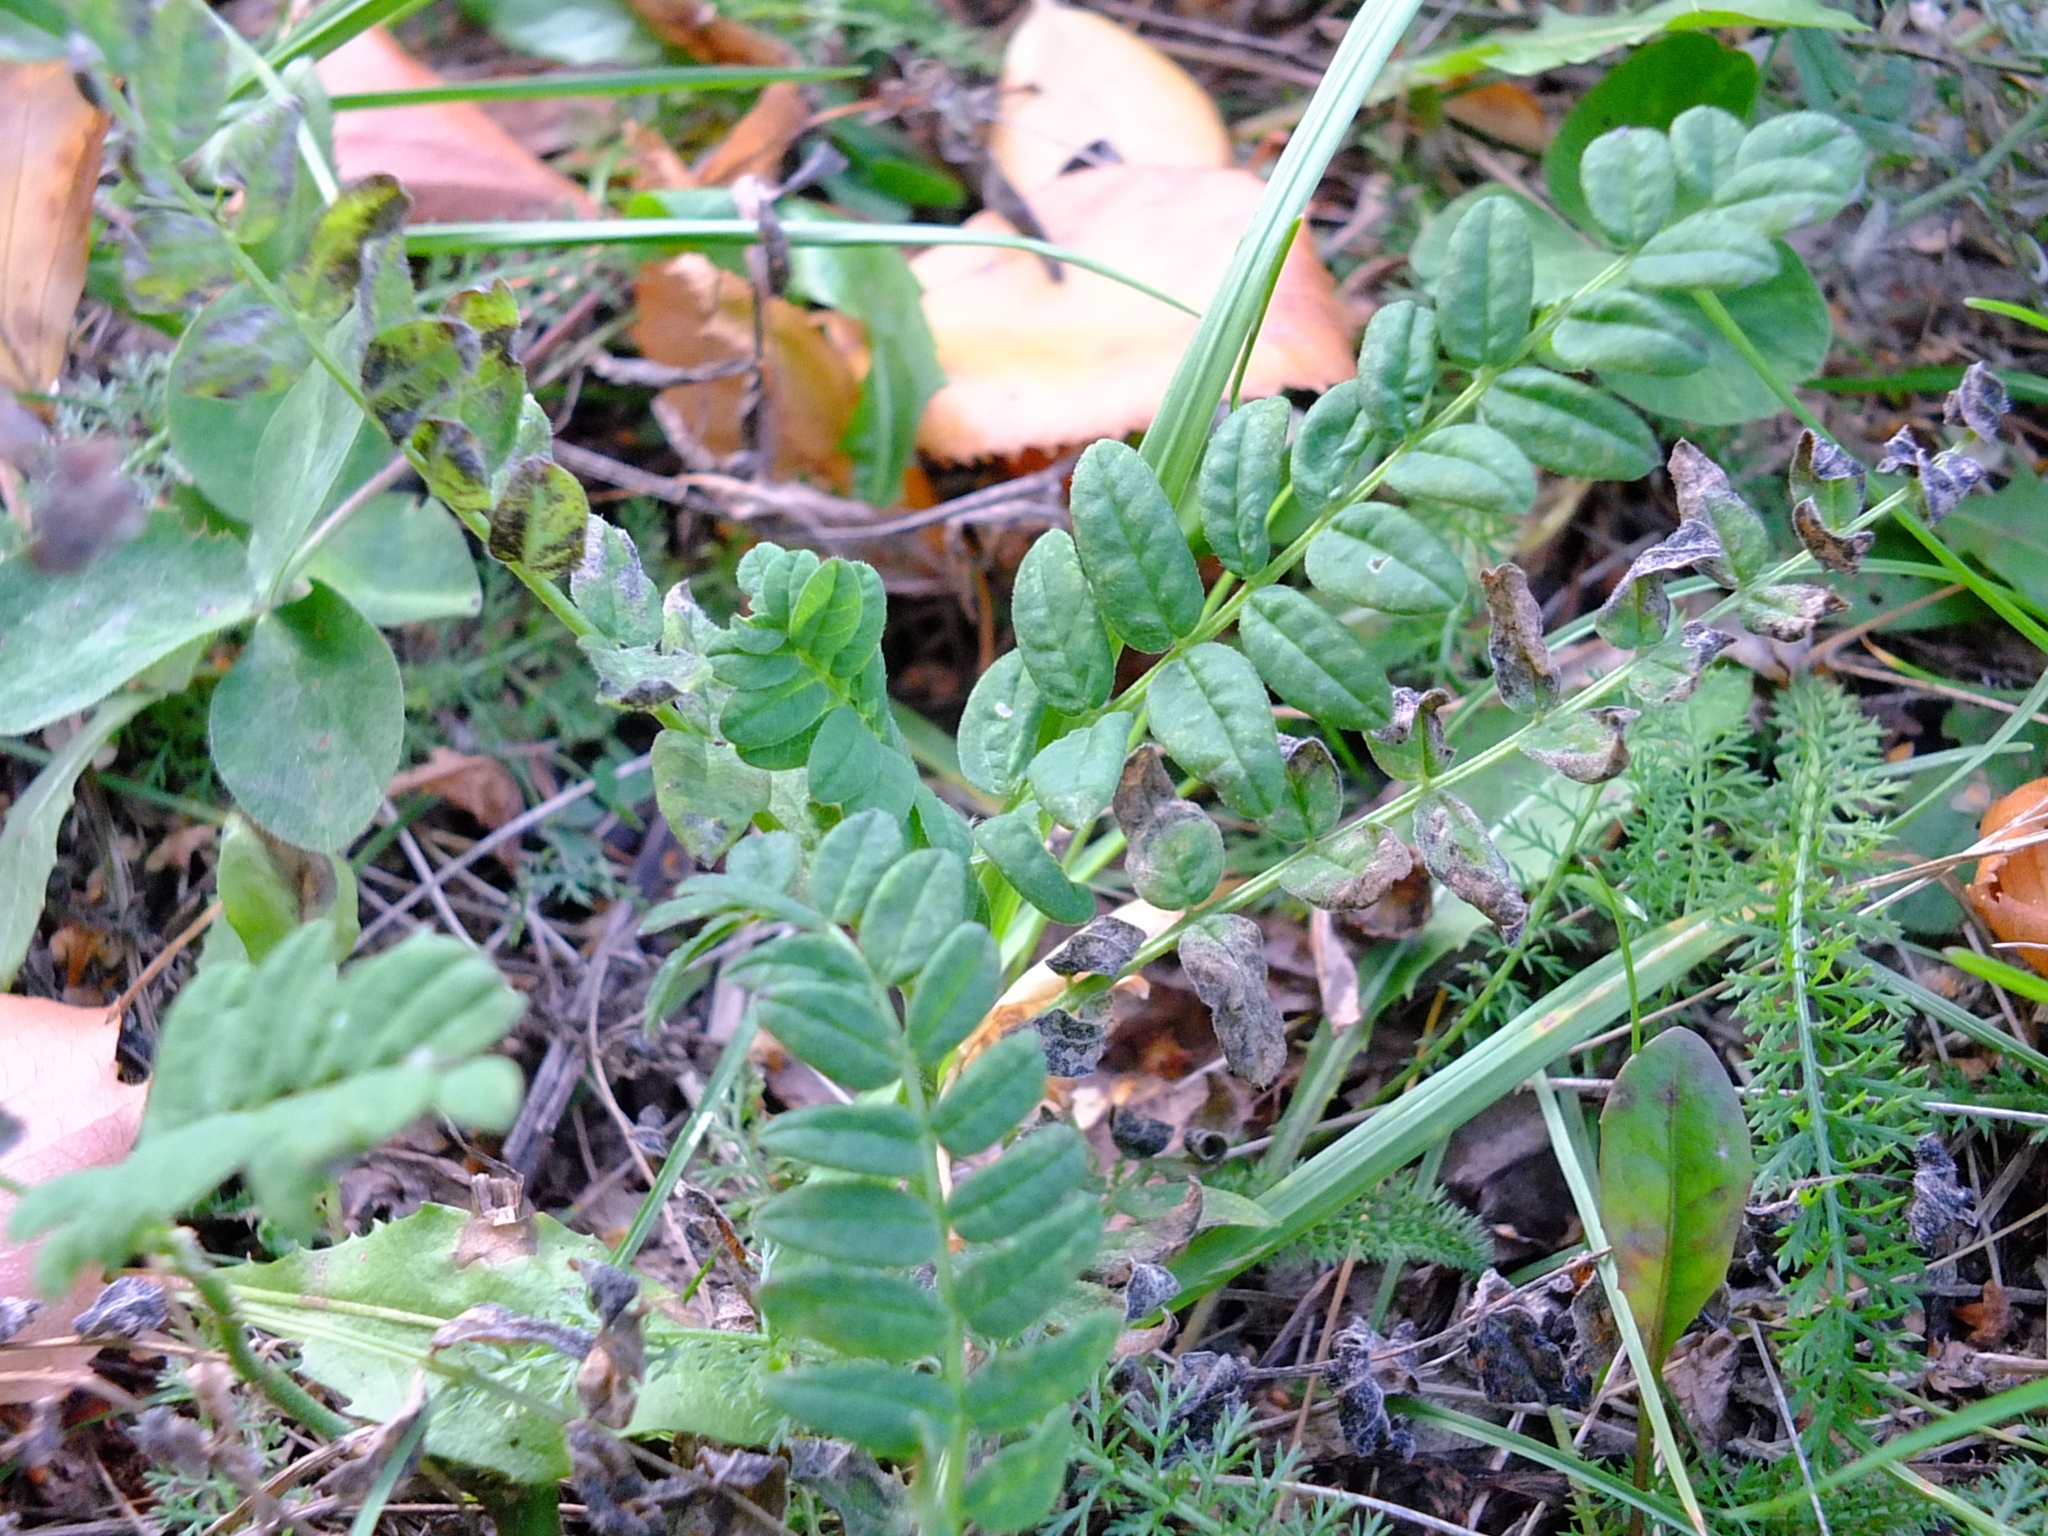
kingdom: Plantae
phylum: Tracheophyta
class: Magnoliopsida
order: Fabales
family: Fabaceae
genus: Astragalus
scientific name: Astragalus cicer
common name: Chick-pea milk-vetch
